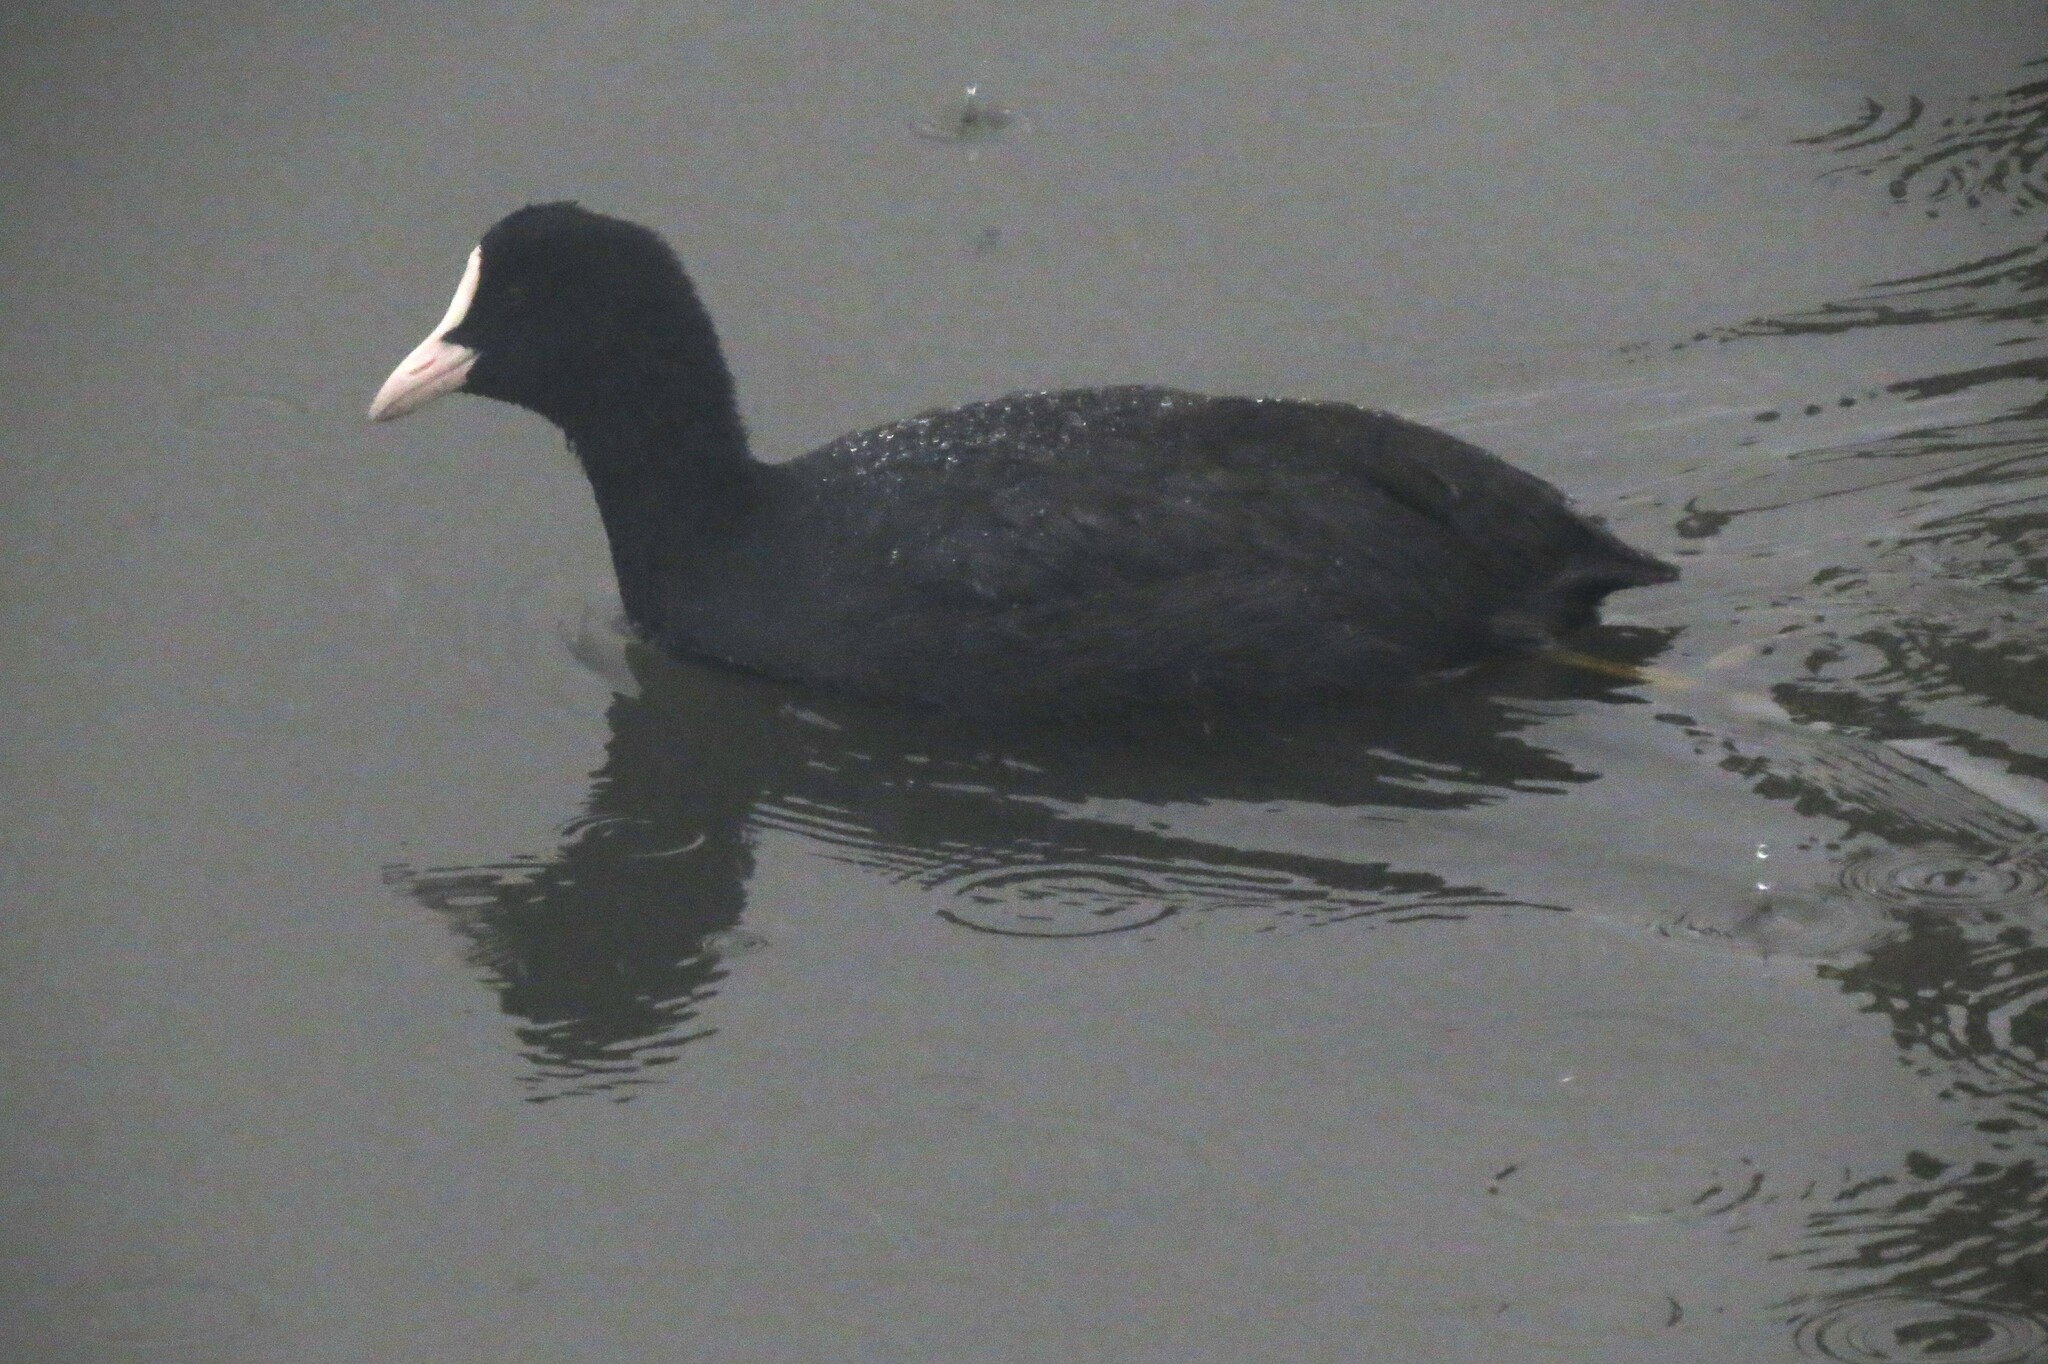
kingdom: Animalia
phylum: Chordata
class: Aves
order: Gruiformes
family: Rallidae
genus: Fulica
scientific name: Fulica atra
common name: Eurasian coot
